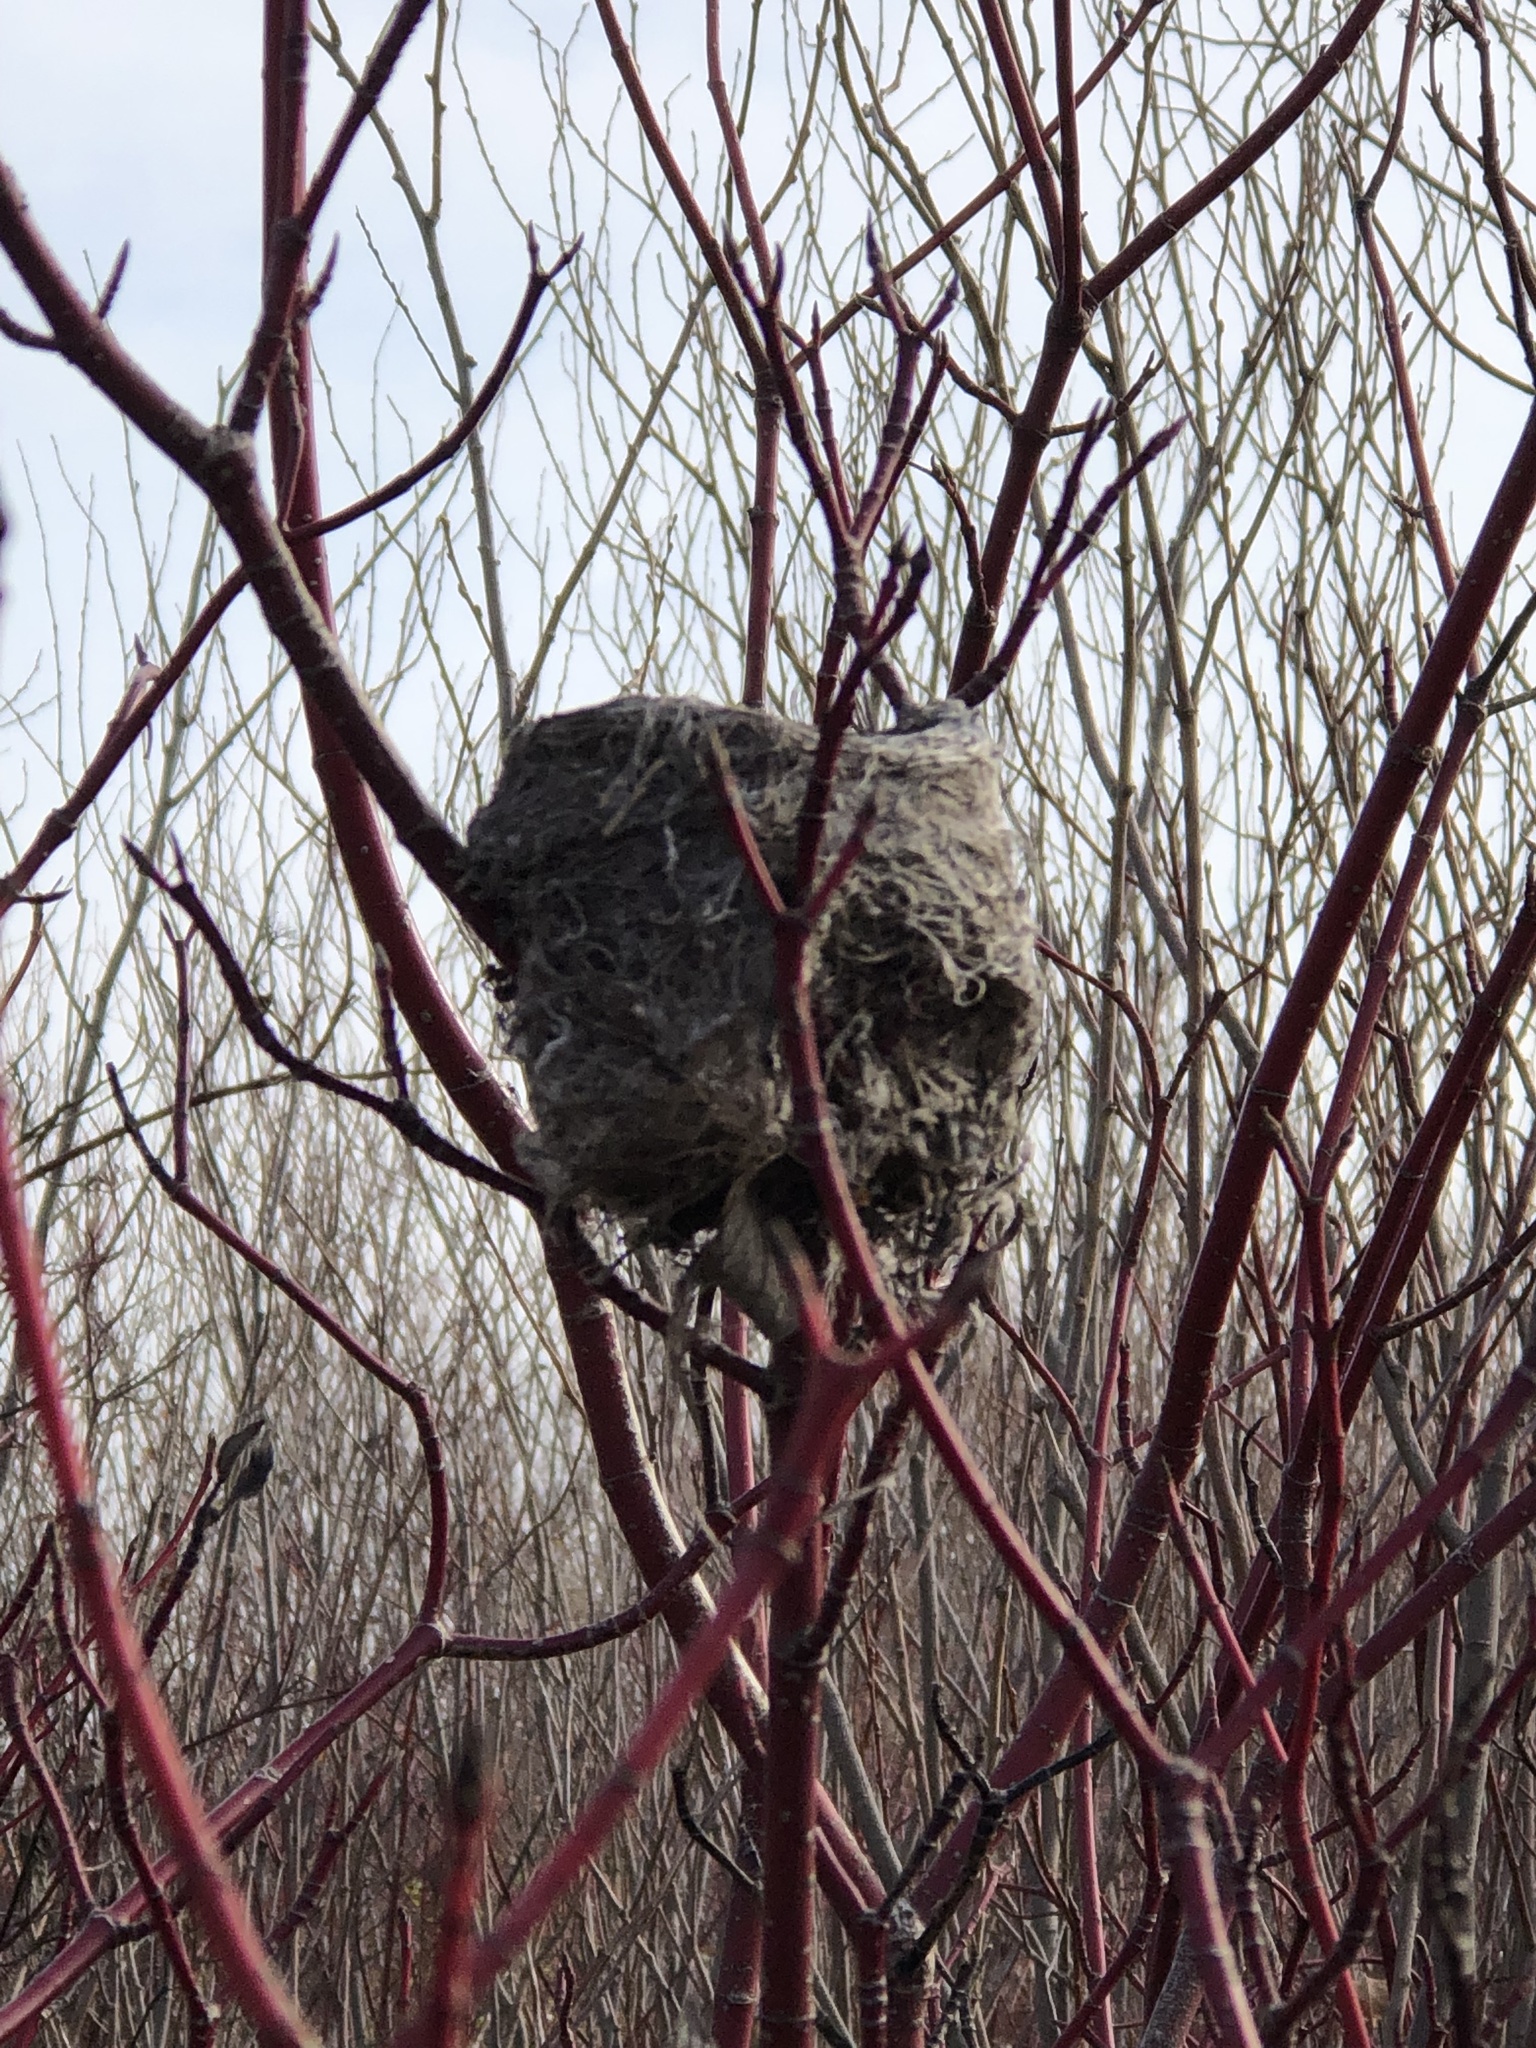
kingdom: Animalia
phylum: Chordata
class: Aves
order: Passeriformes
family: Parulidae
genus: Setophaga
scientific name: Setophaga petechia
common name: Yellow warbler
